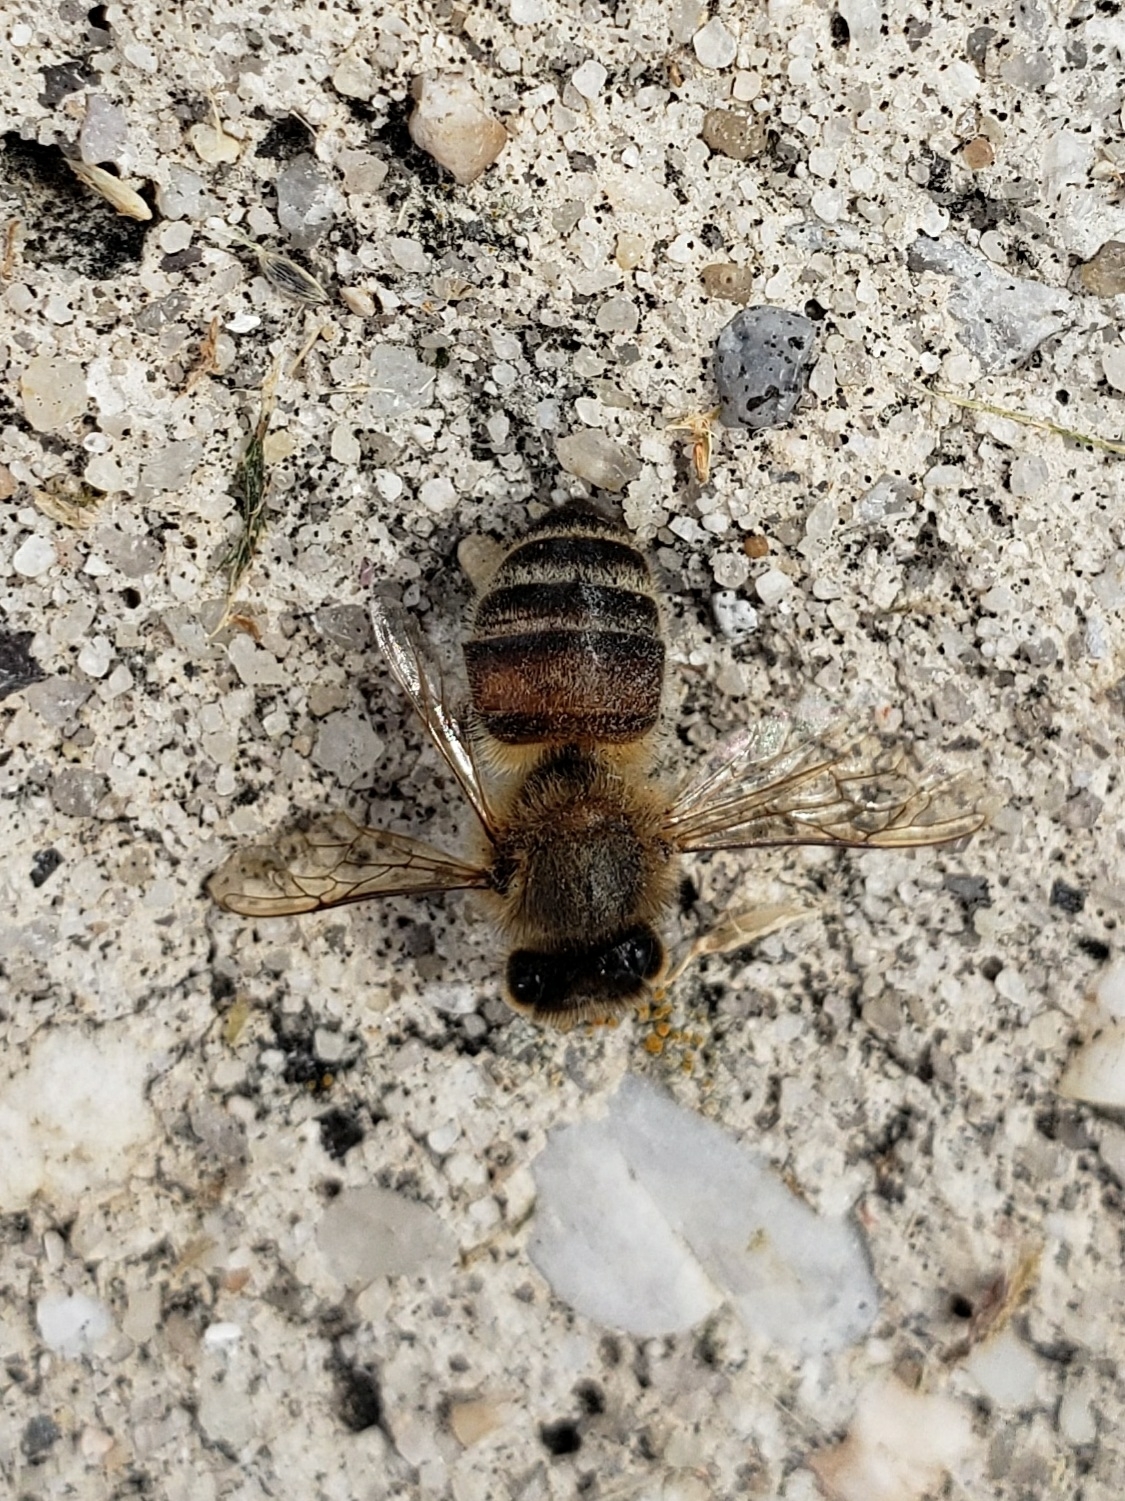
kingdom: Animalia
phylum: Arthropoda
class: Insecta
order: Hymenoptera
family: Apidae
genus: Apis
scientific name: Apis mellifera
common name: Honey bee
